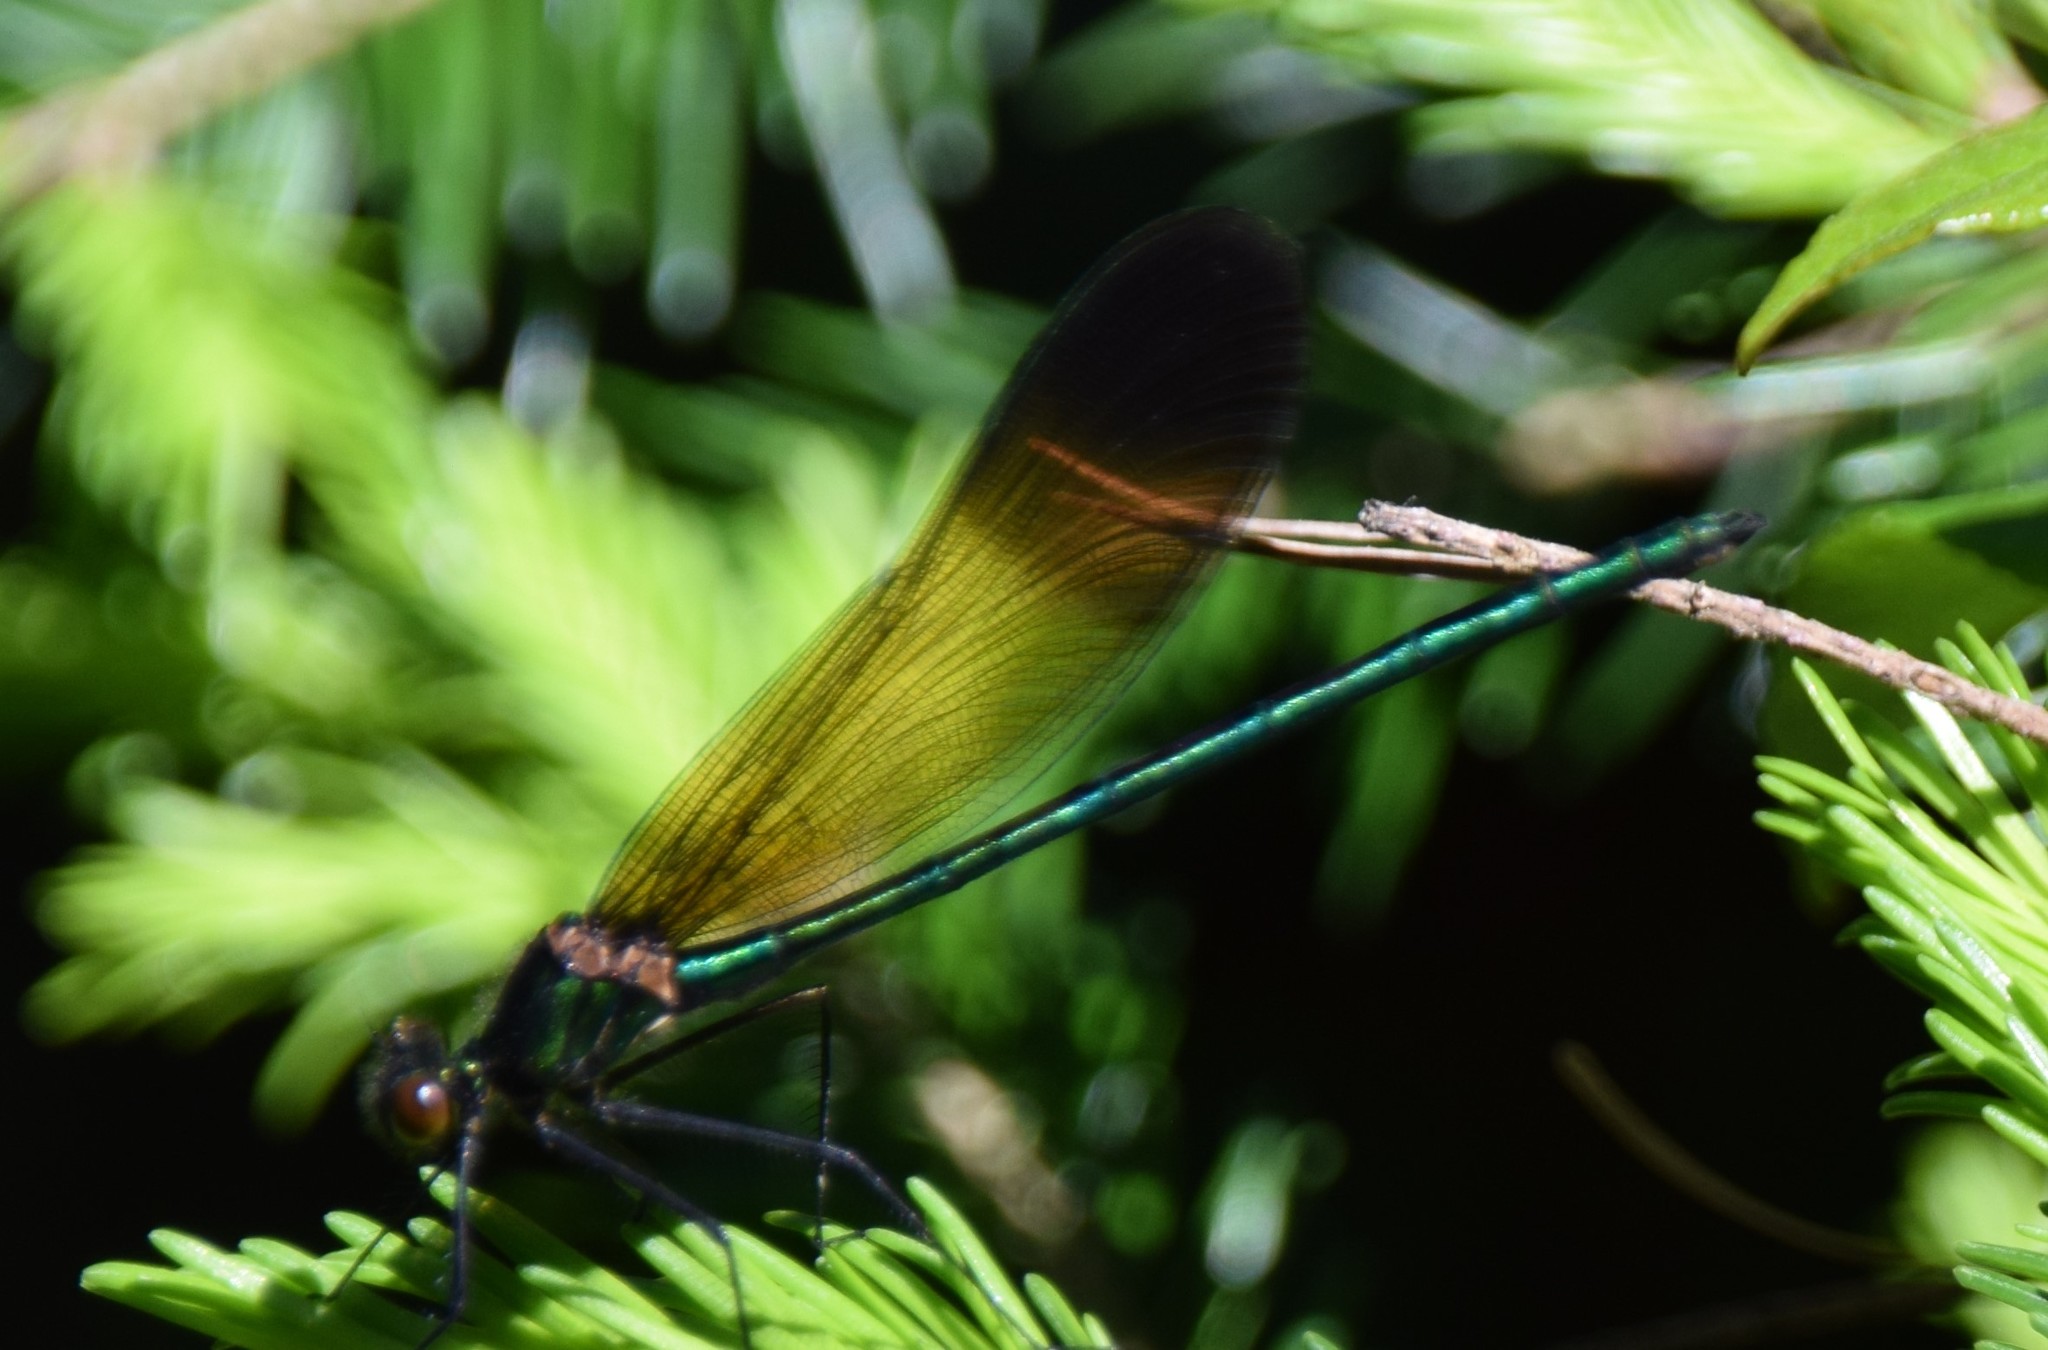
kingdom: Animalia
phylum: Arthropoda
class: Insecta
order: Odonata
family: Calopterygidae
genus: Calopteryx
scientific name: Calopteryx aequabilis
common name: River jewelwing
